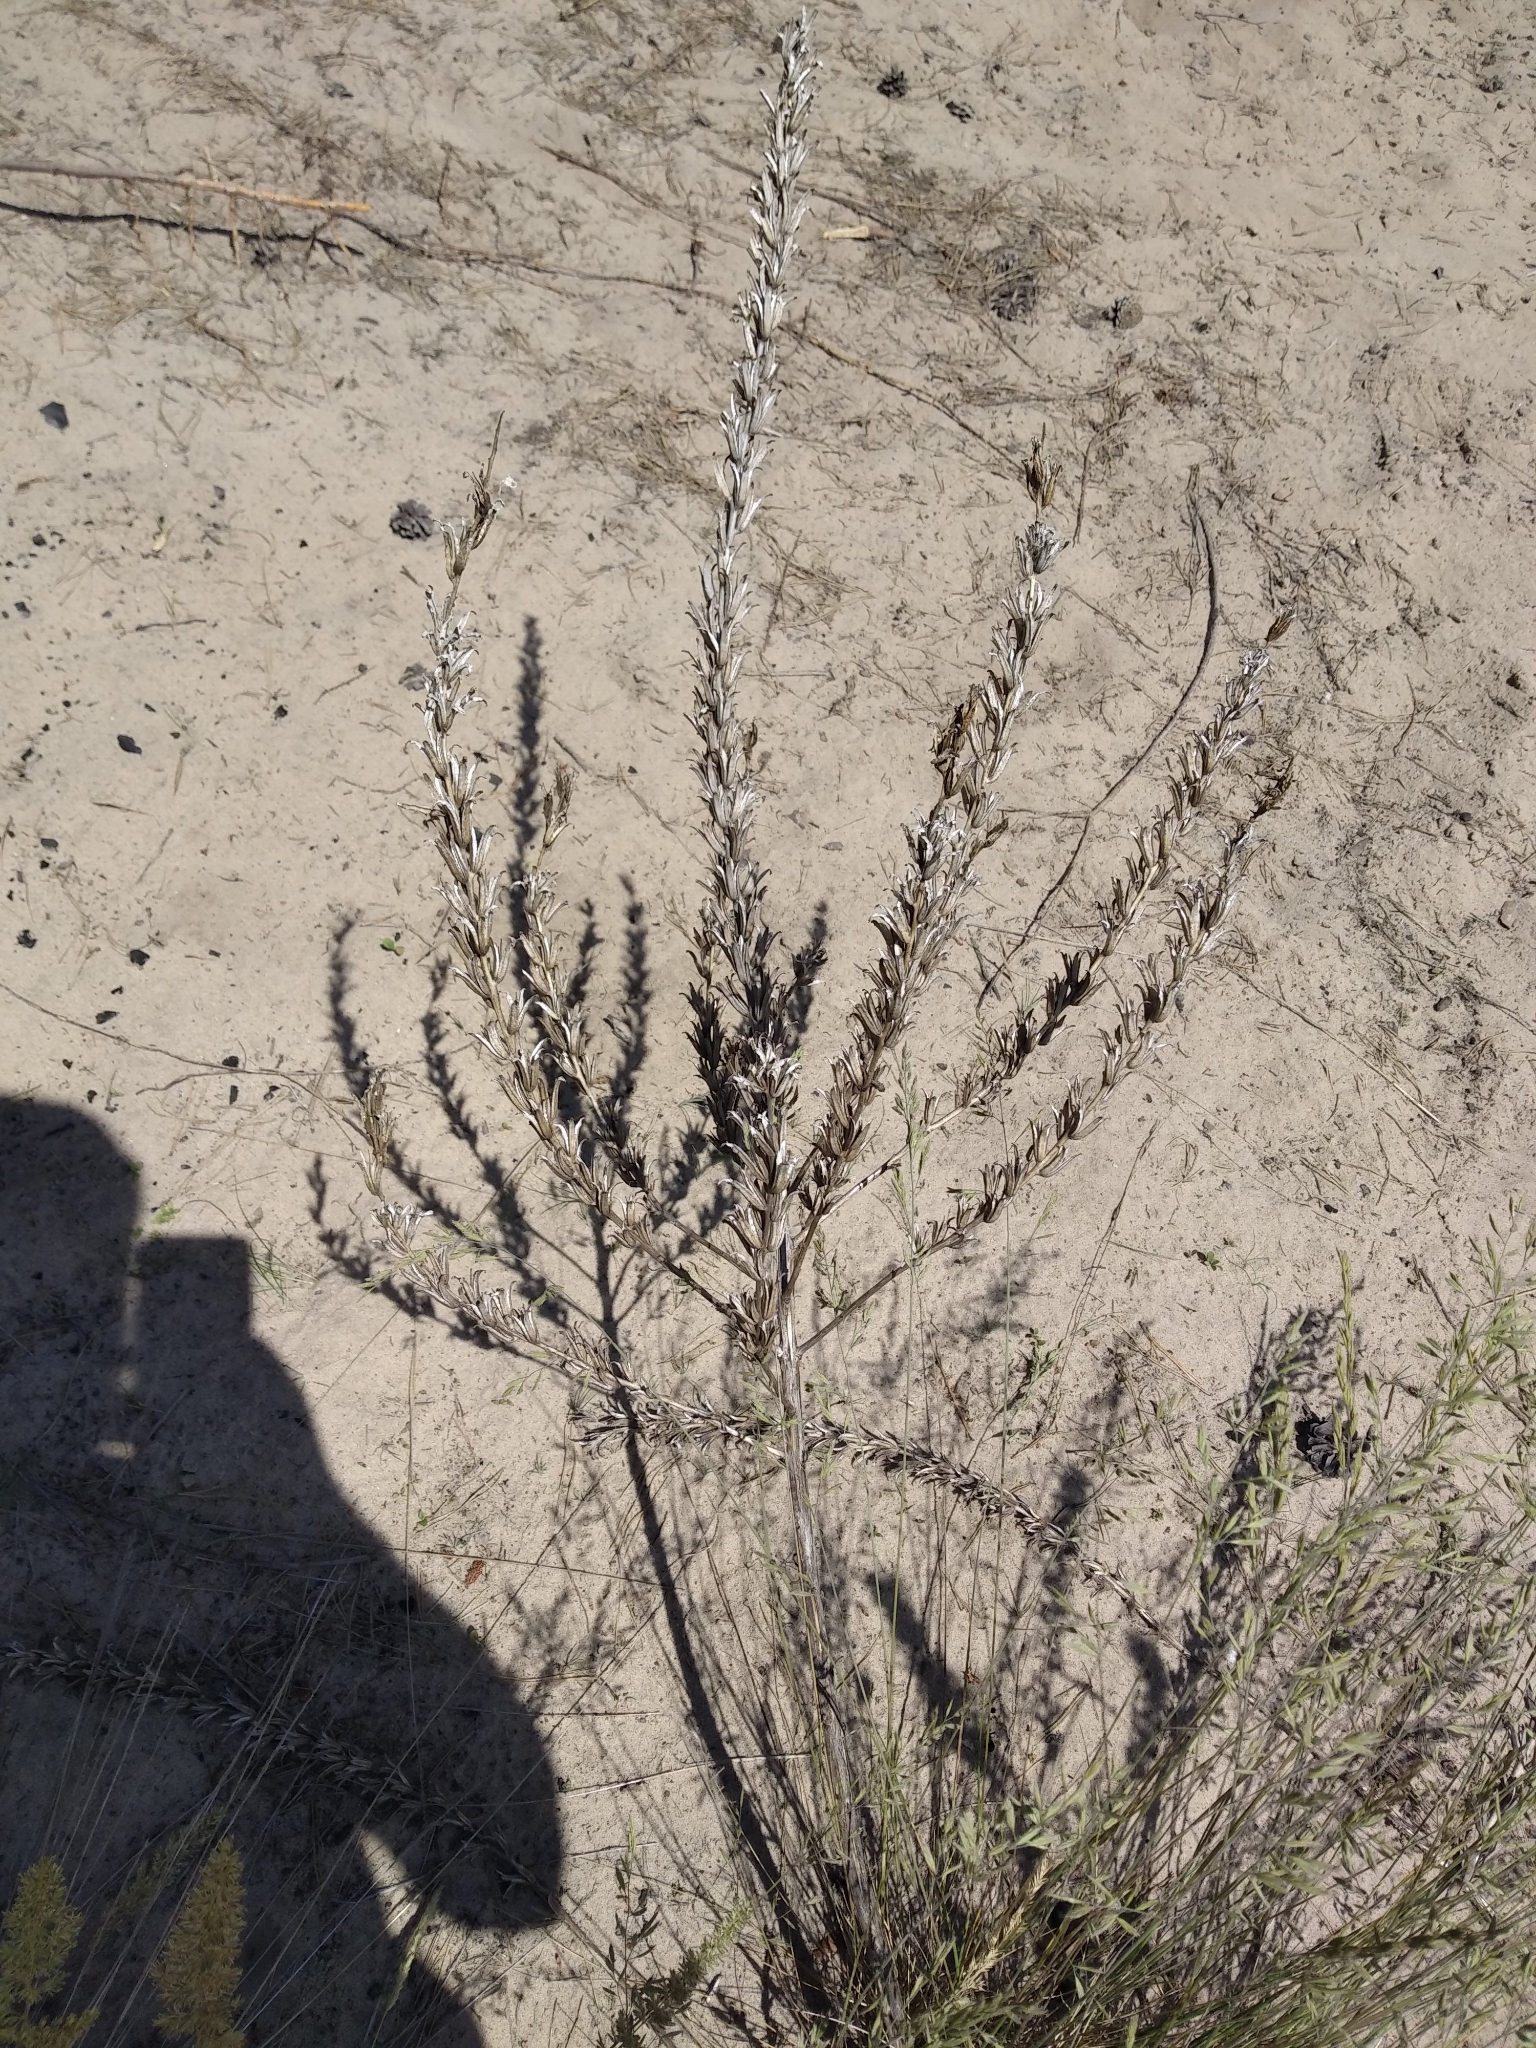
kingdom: Plantae
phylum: Tracheophyta
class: Magnoliopsida
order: Myrtales
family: Onagraceae
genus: Oenothera
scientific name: Oenothera
